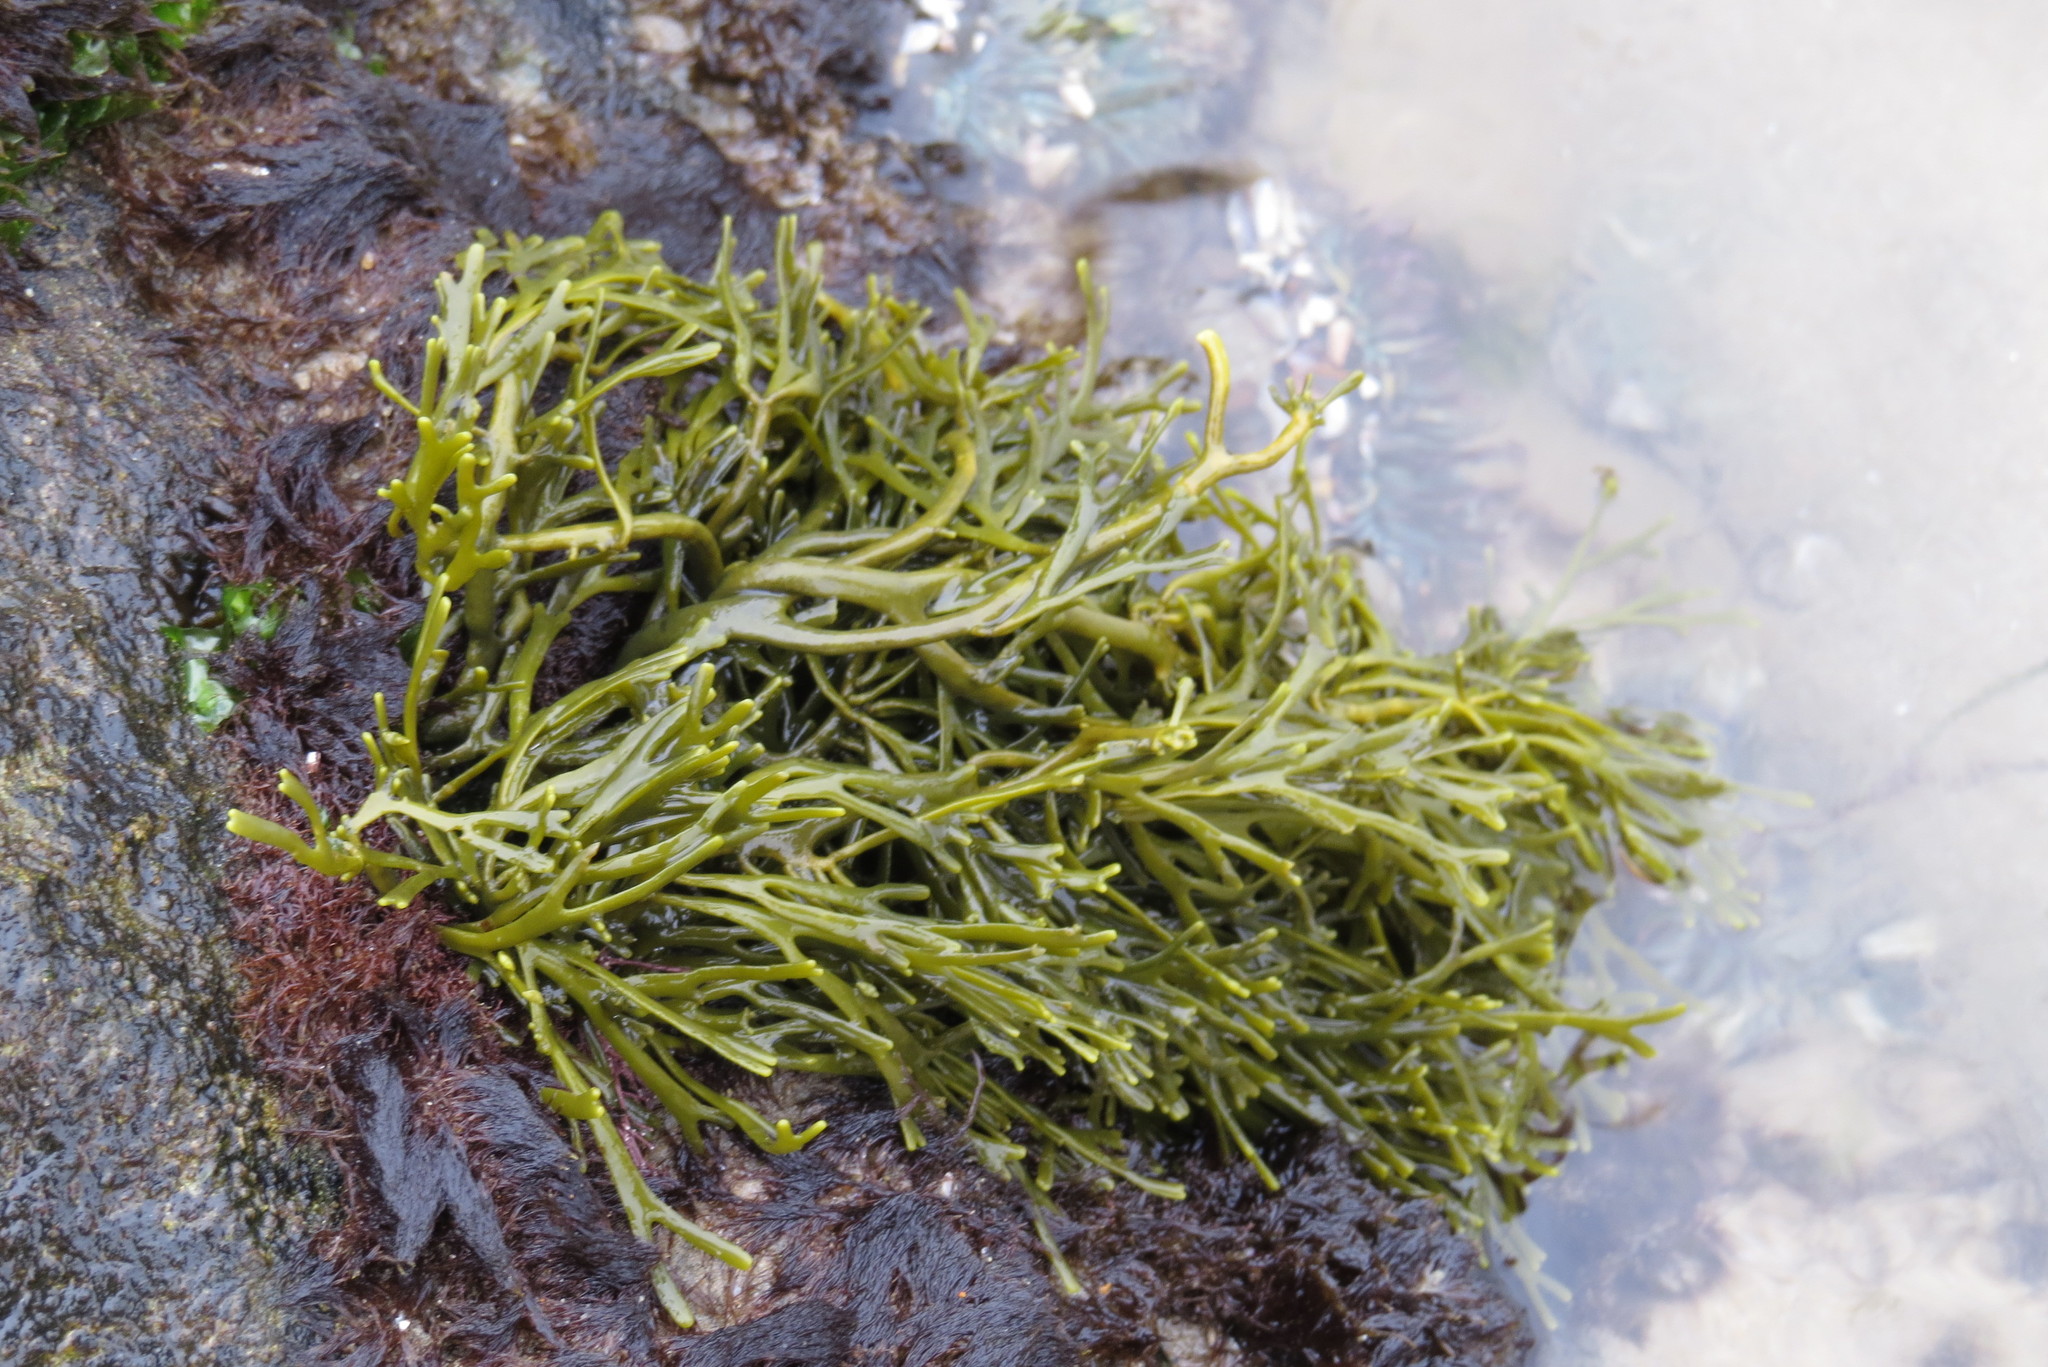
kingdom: Chromista
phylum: Ochrophyta
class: Phaeophyceae
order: Fucales
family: Fucaceae
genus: Silvetia
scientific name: Silvetia
